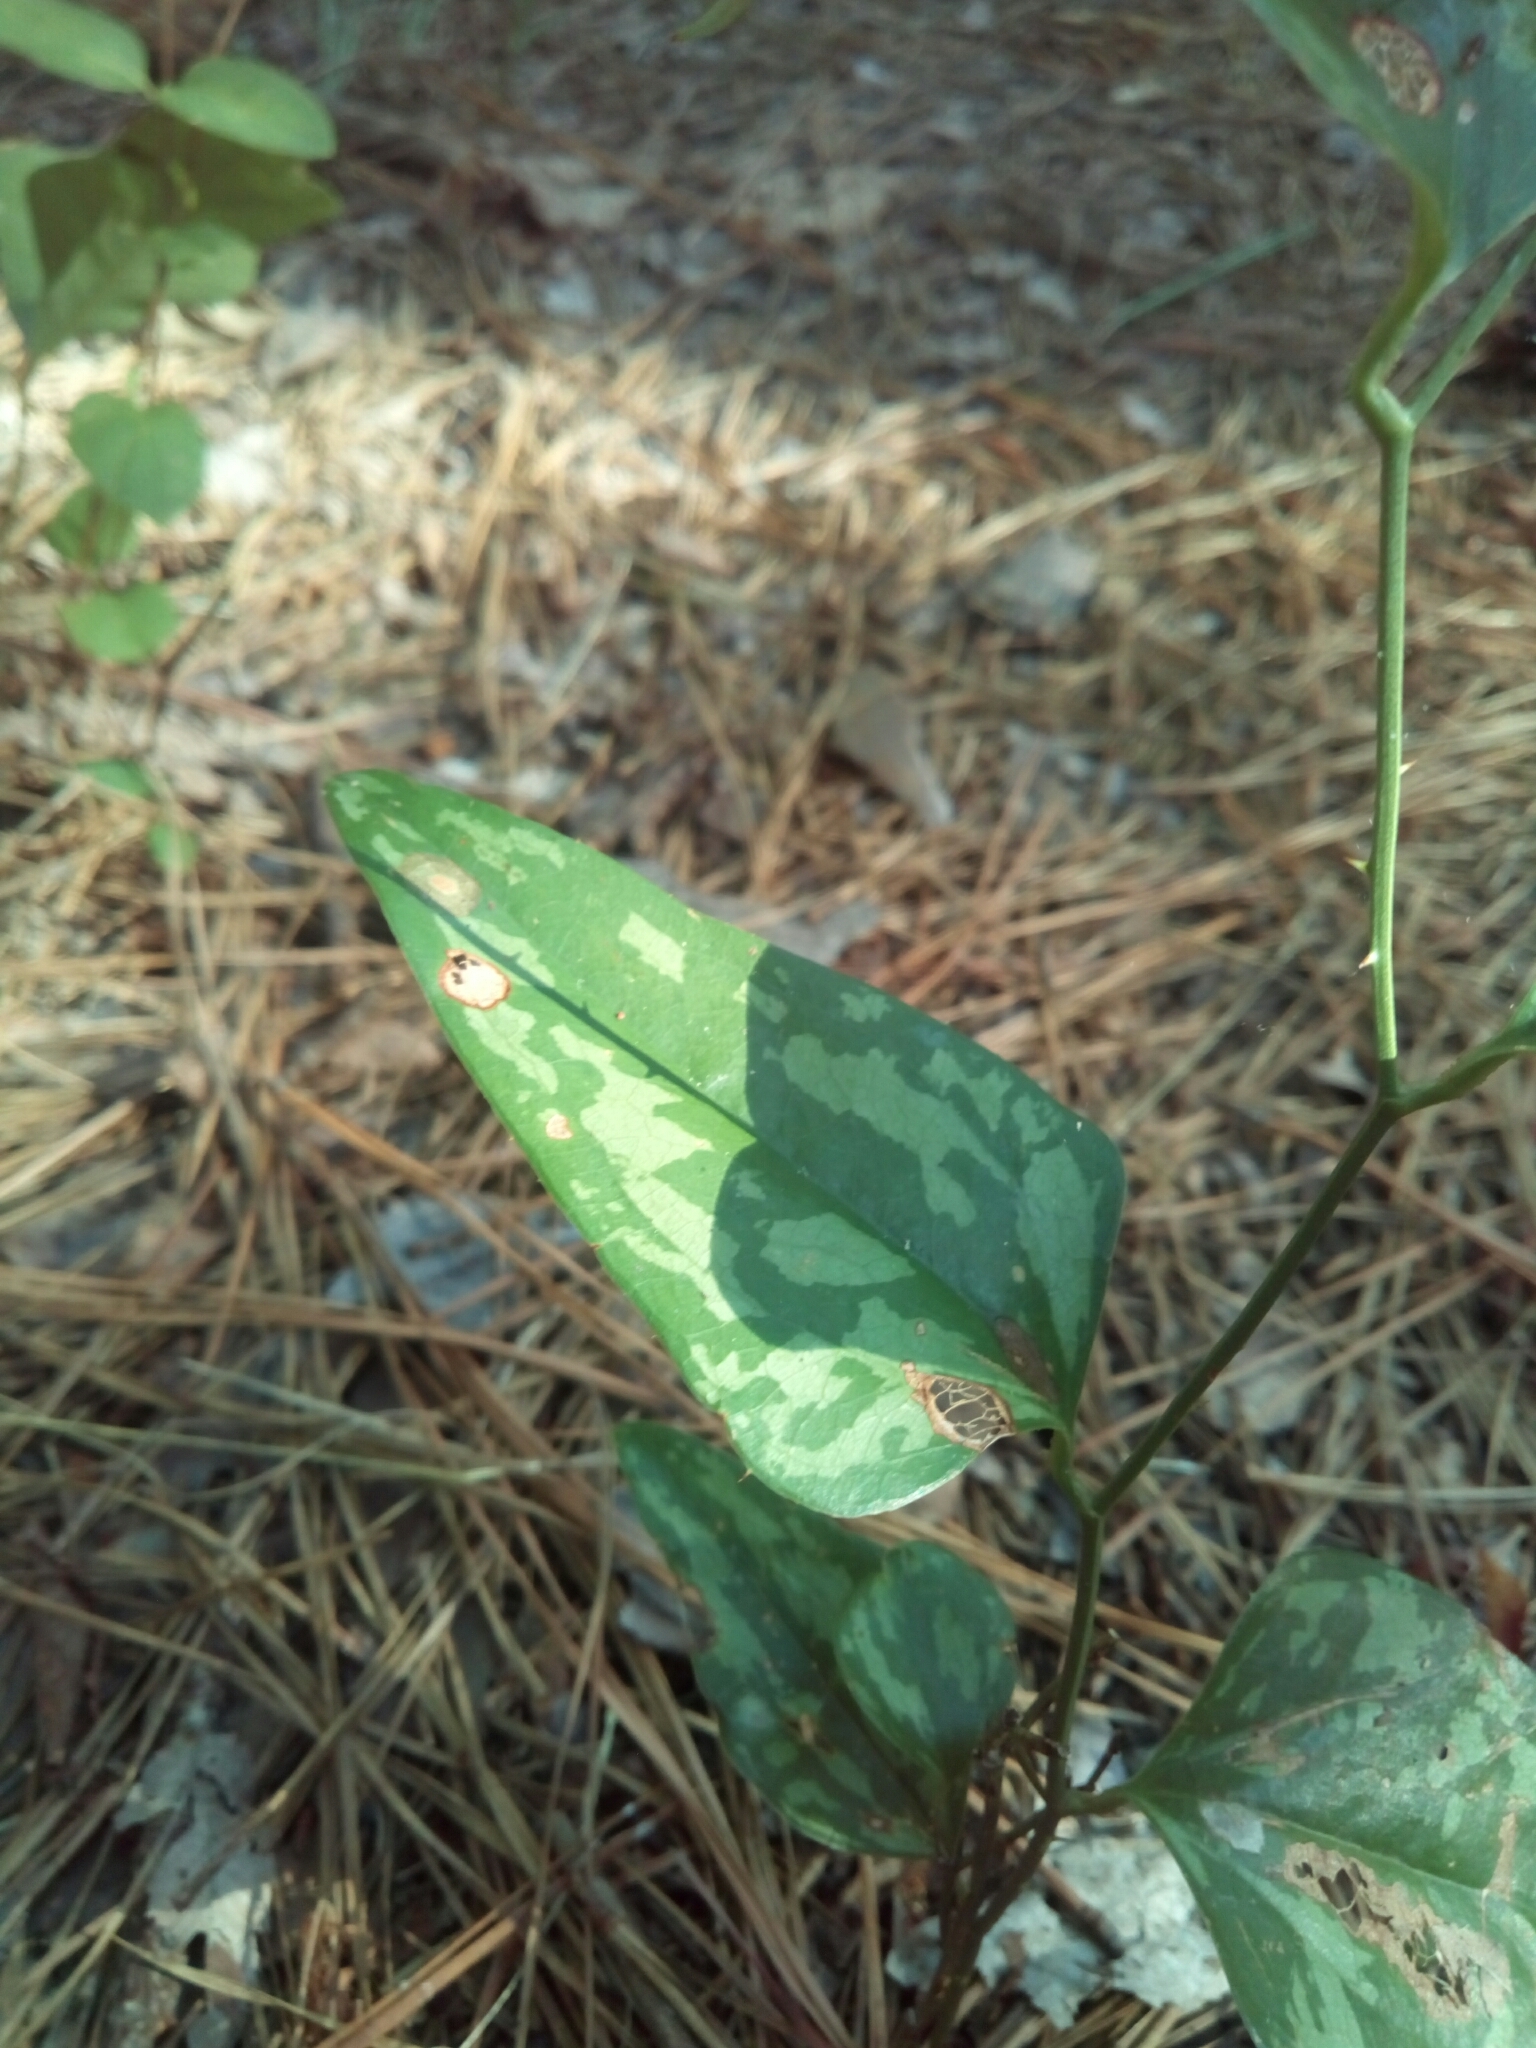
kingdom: Plantae
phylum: Tracheophyta
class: Liliopsida
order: Liliales
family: Smilacaceae
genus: Smilax
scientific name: Smilax bona-nox
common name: Catbrier
